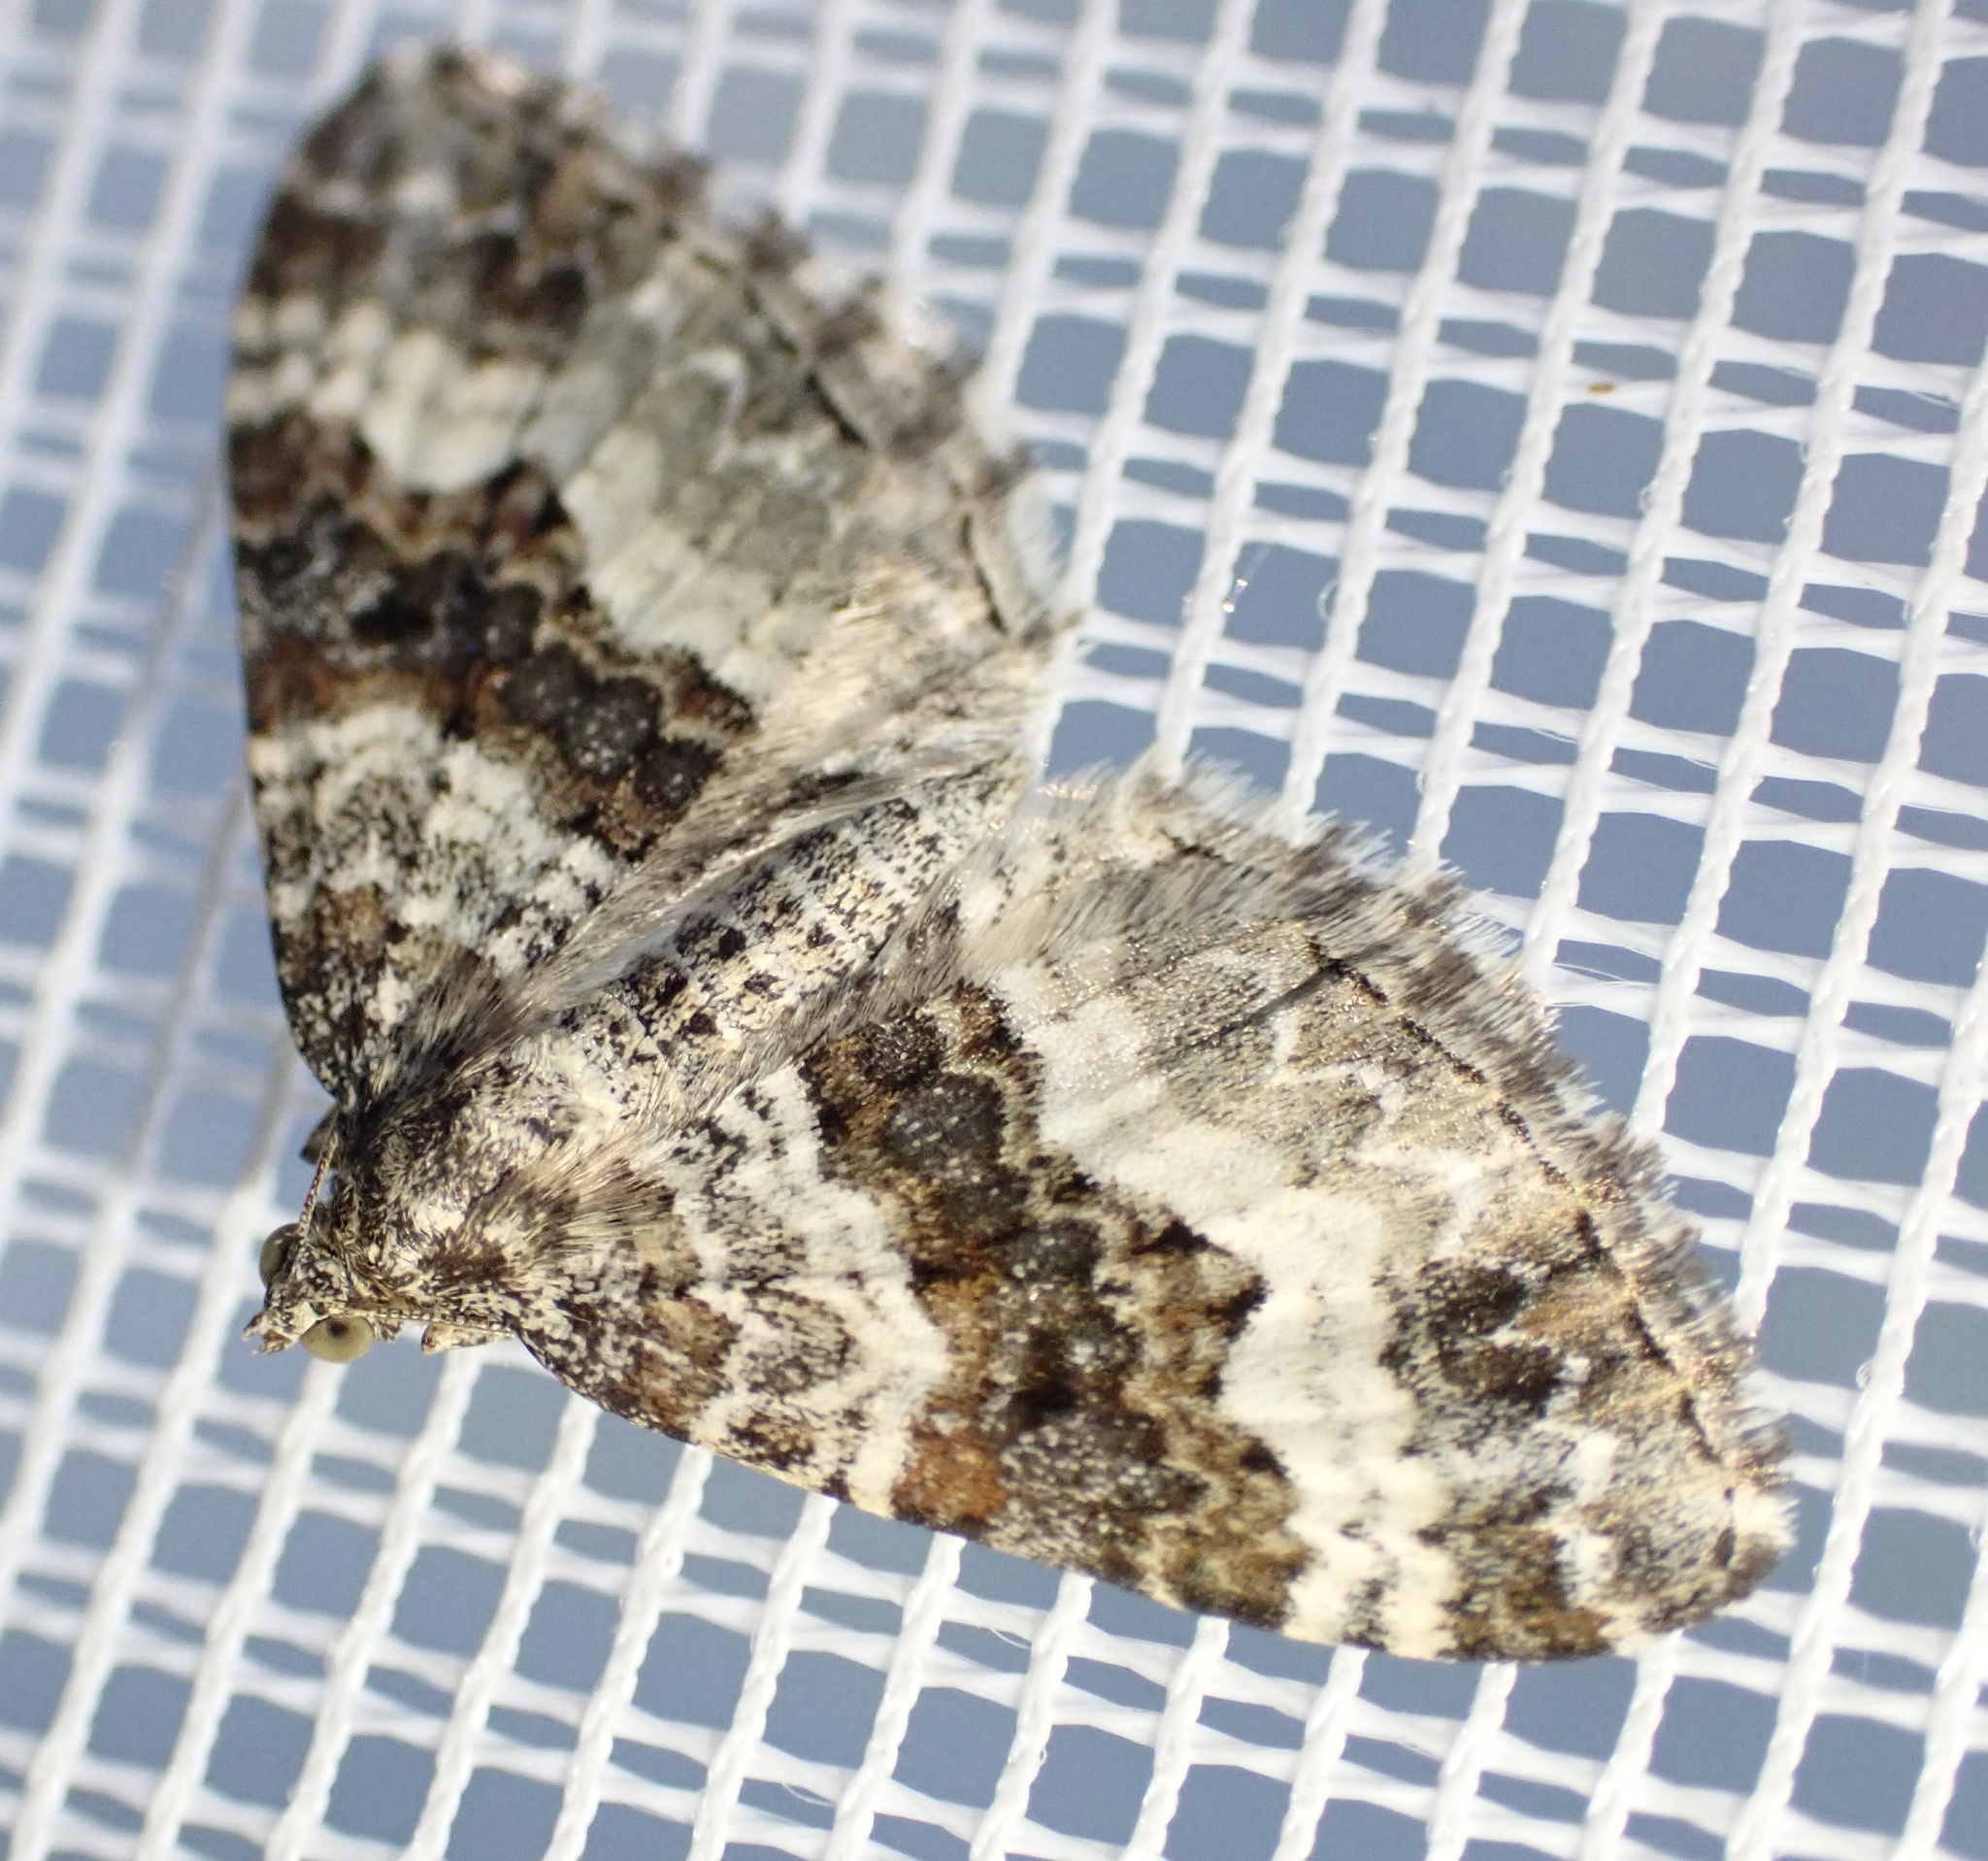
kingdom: Animalia
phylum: Arthropoda
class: Insecta
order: Lepidoptera
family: Geometridae
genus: Epirrhoe
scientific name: Epirrhoe alternata
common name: Common carpet
